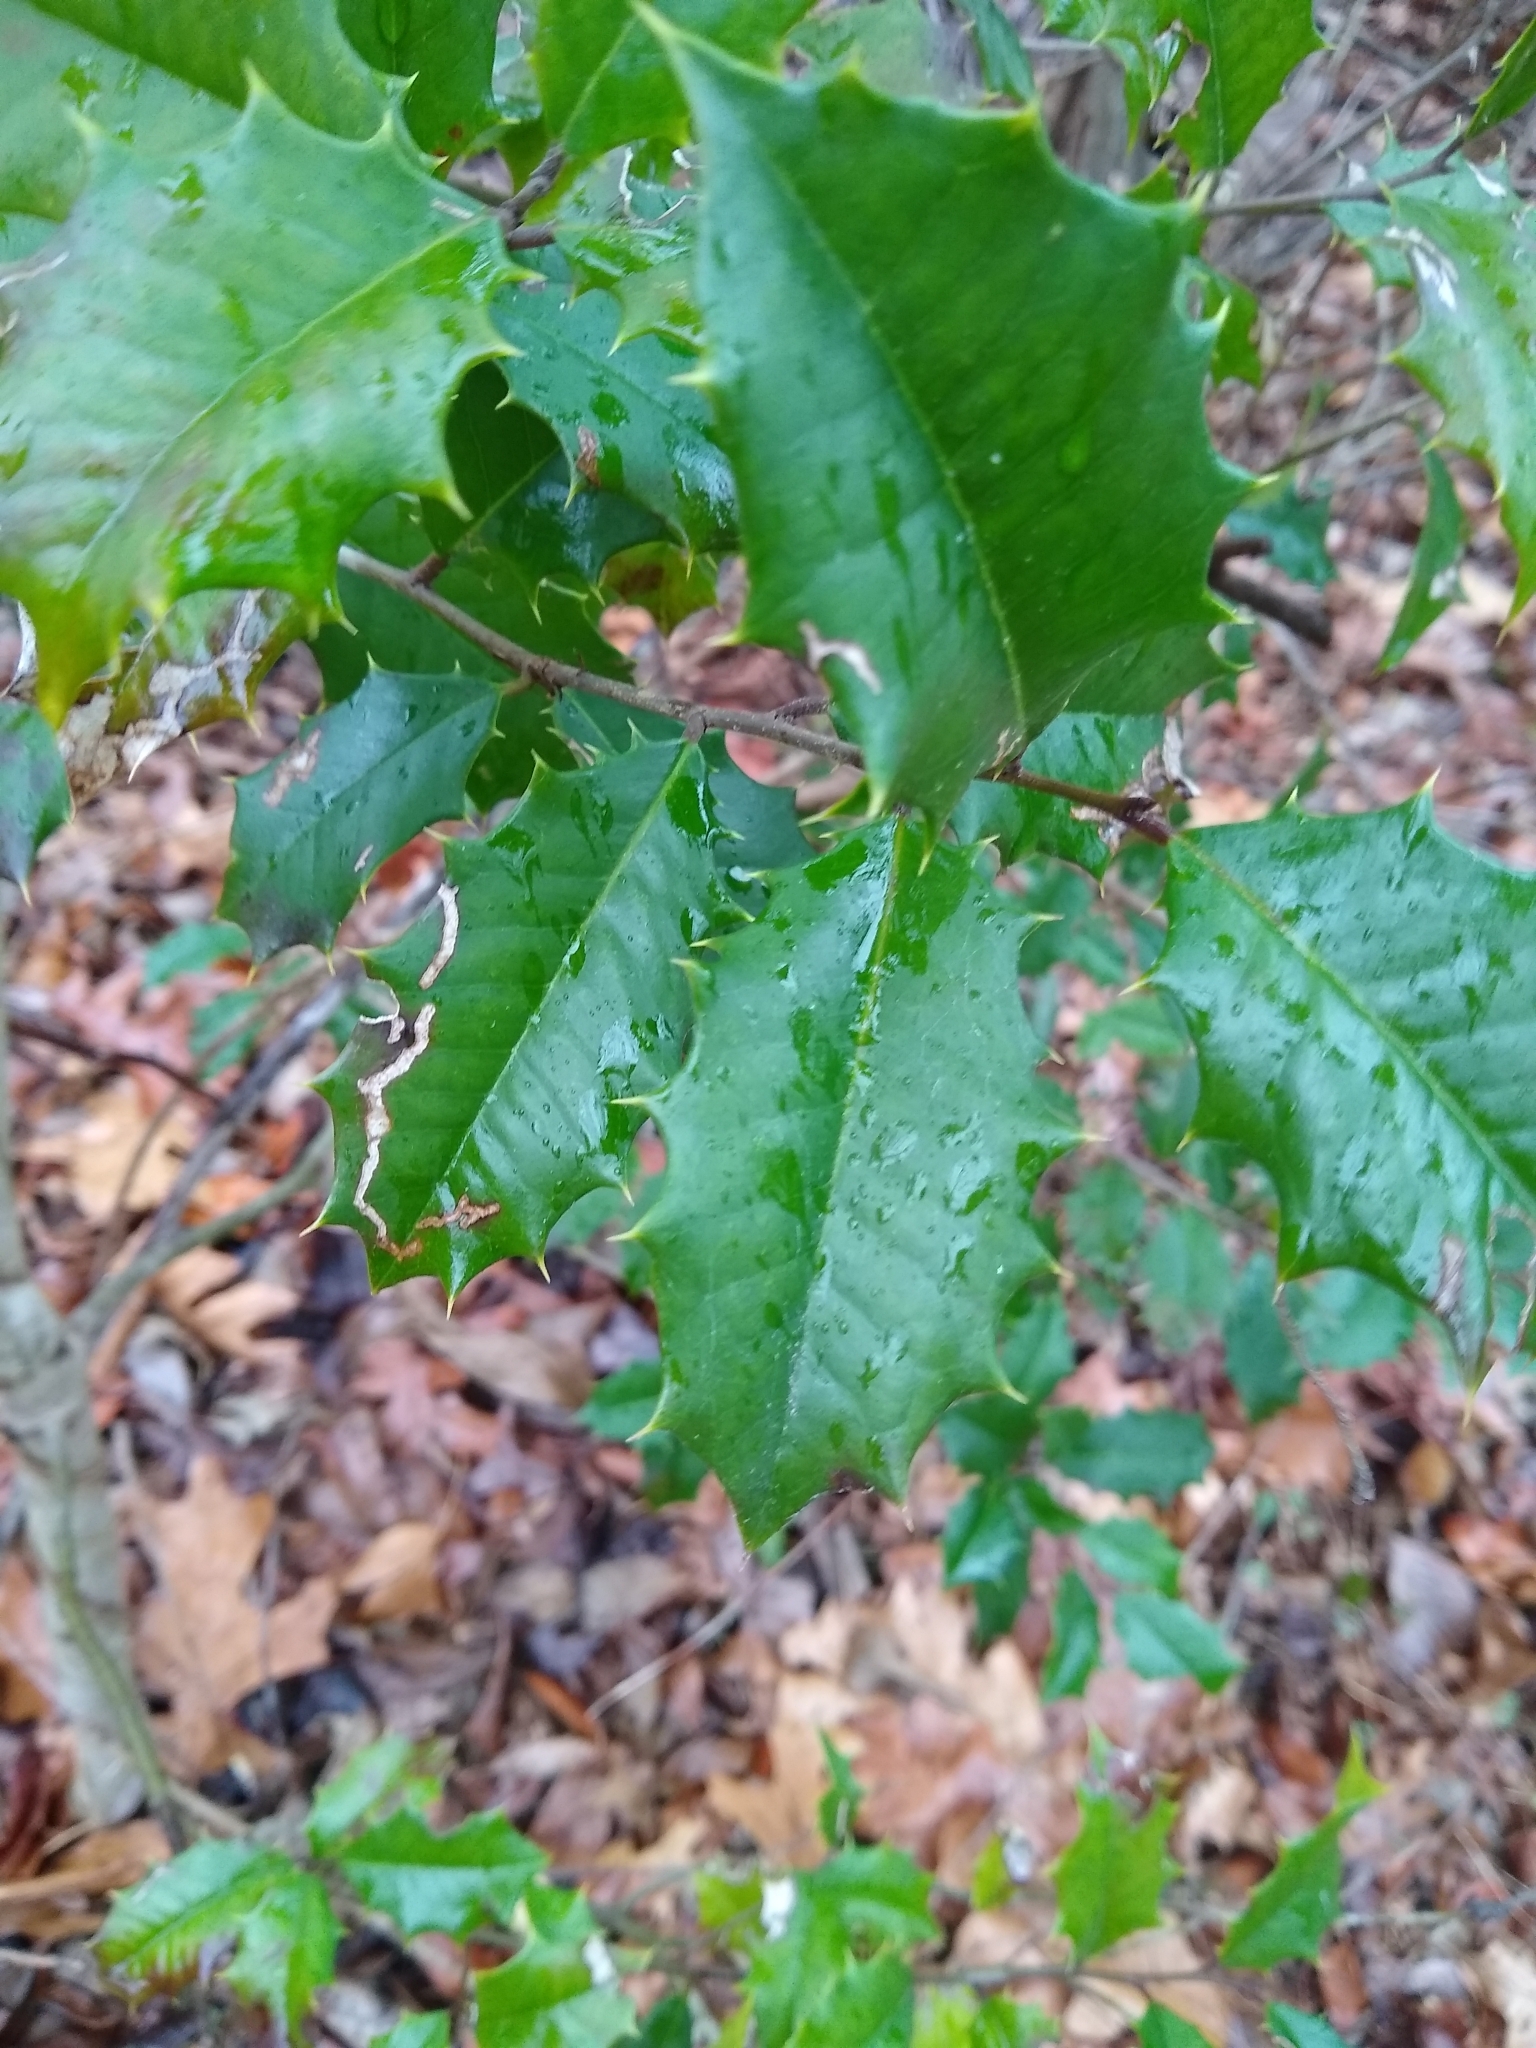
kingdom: Plantae
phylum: Tracheophyta
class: Magnoliopsida
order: Aquifoliales
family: Aquifoliaceae
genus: Ilex
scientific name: Ilex opaca
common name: American holly
